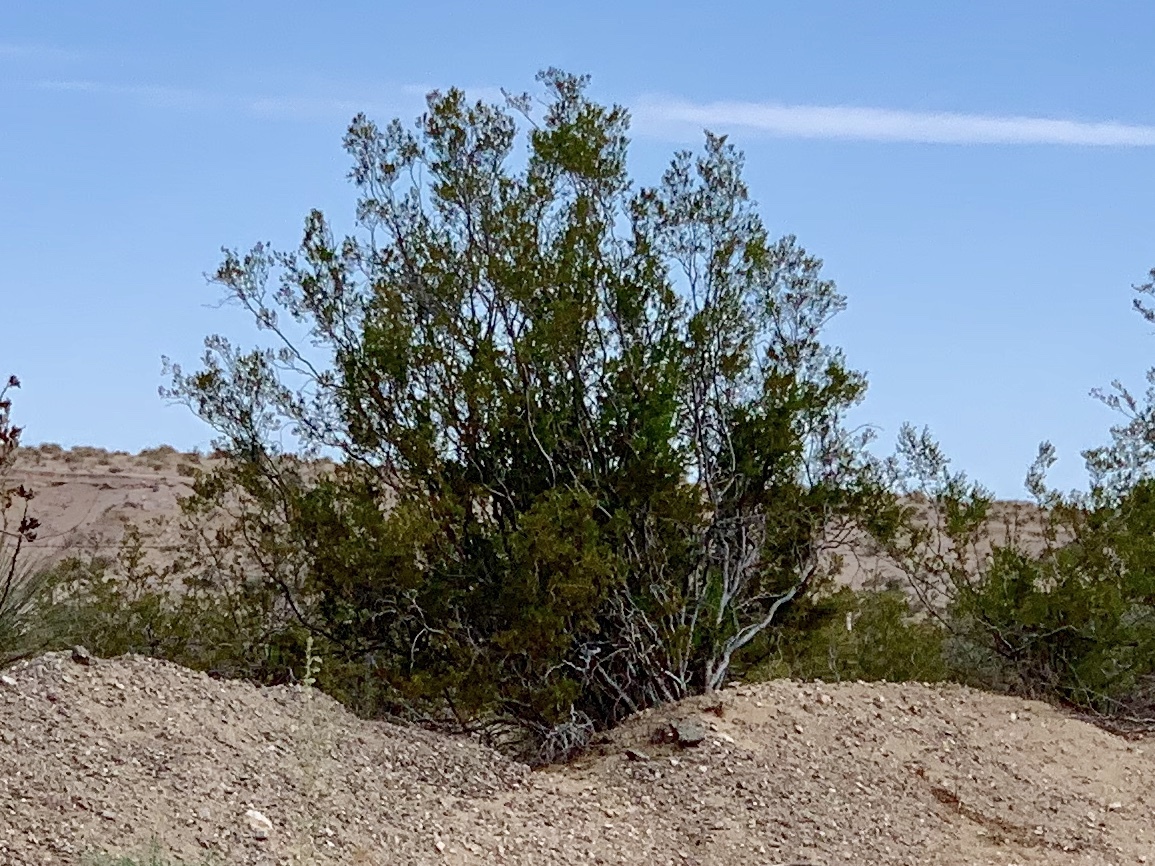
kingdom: Plantae
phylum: Tracheophyta
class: Magnoliopsida
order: Zygophyllales
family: Zygophyllaceae
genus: Larrea
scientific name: Larrea tridentata
